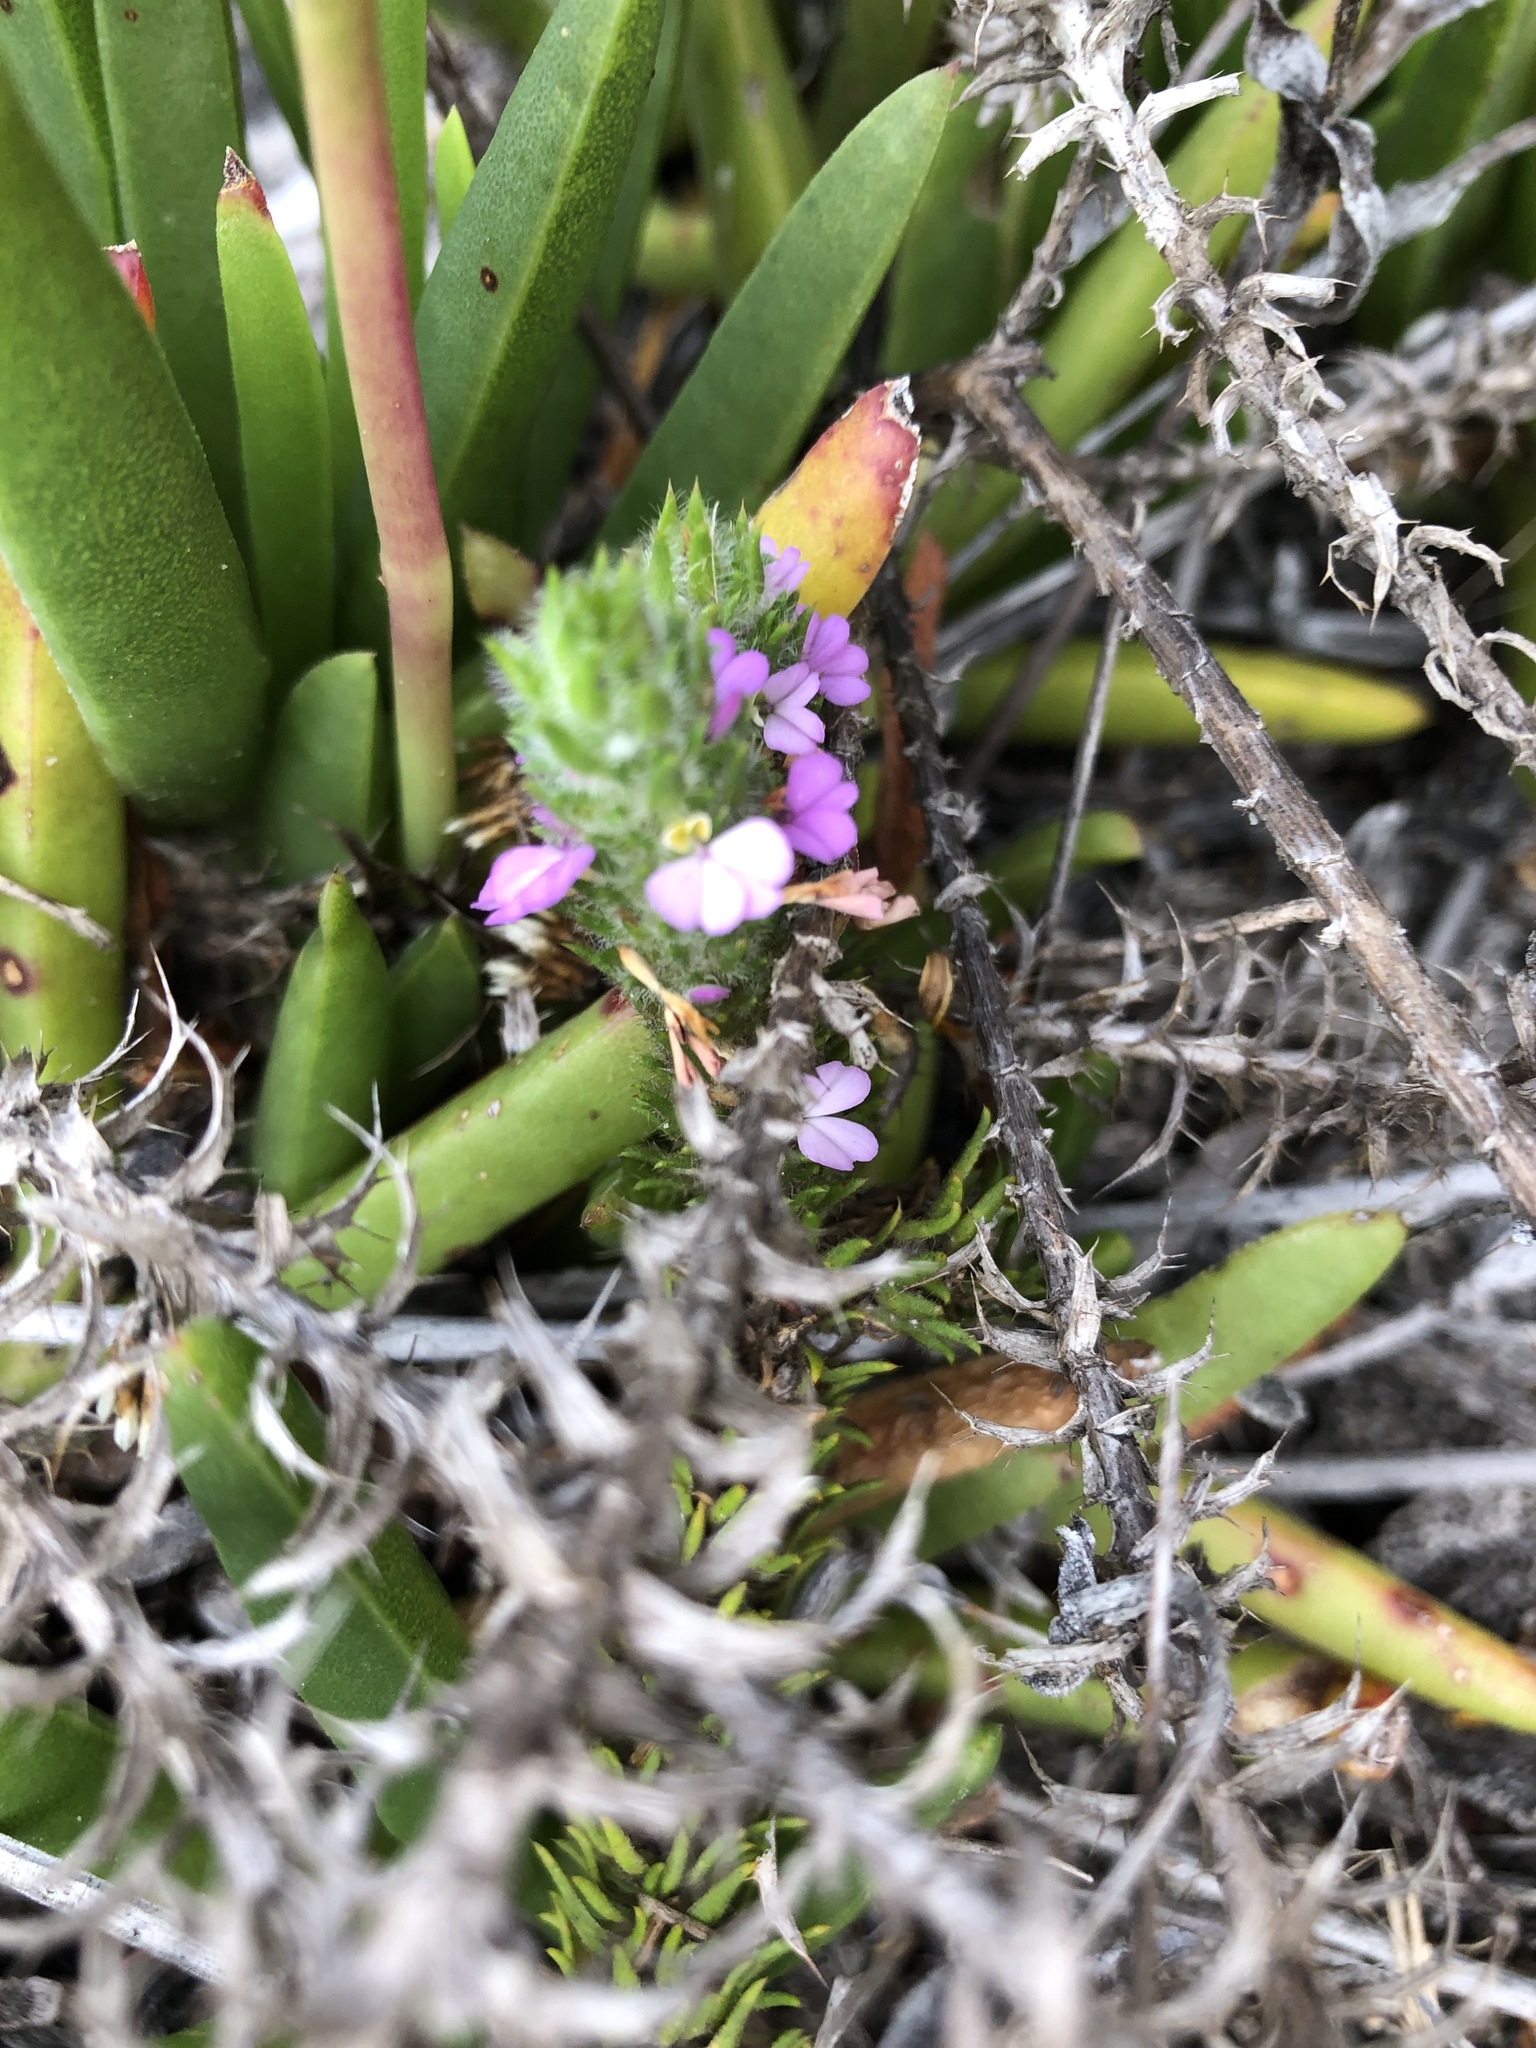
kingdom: Plantae
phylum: Tracheophyta
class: Magnoliopsida
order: Fabales
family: Polygalaceae
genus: Muraltia
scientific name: Muraltia thunbergii
